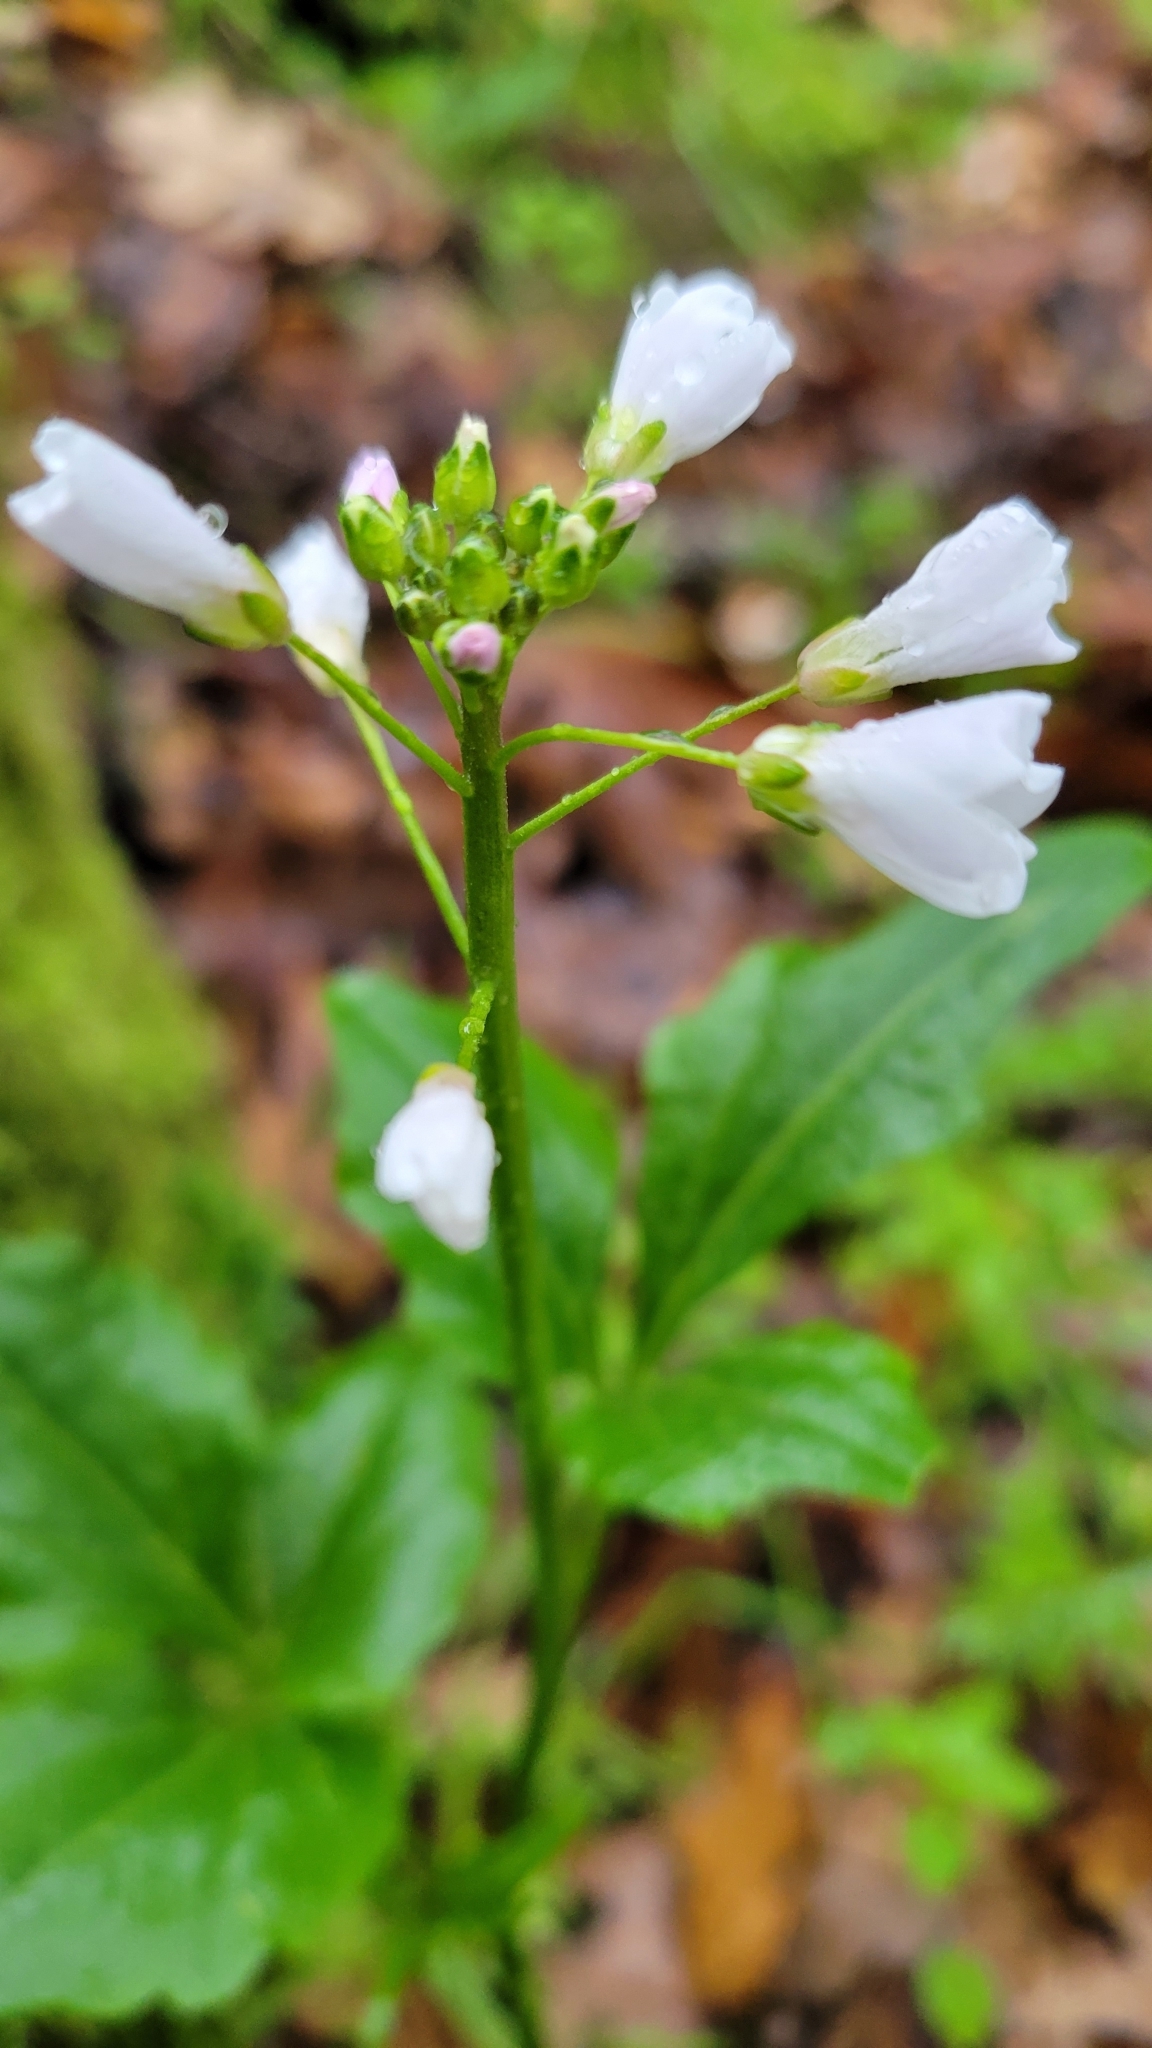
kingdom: Plantae
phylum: Tracheophyta
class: Magnoliopsida
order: Brassicales
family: Brassicaceae
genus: Cardamine
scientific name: Cardamine californica
